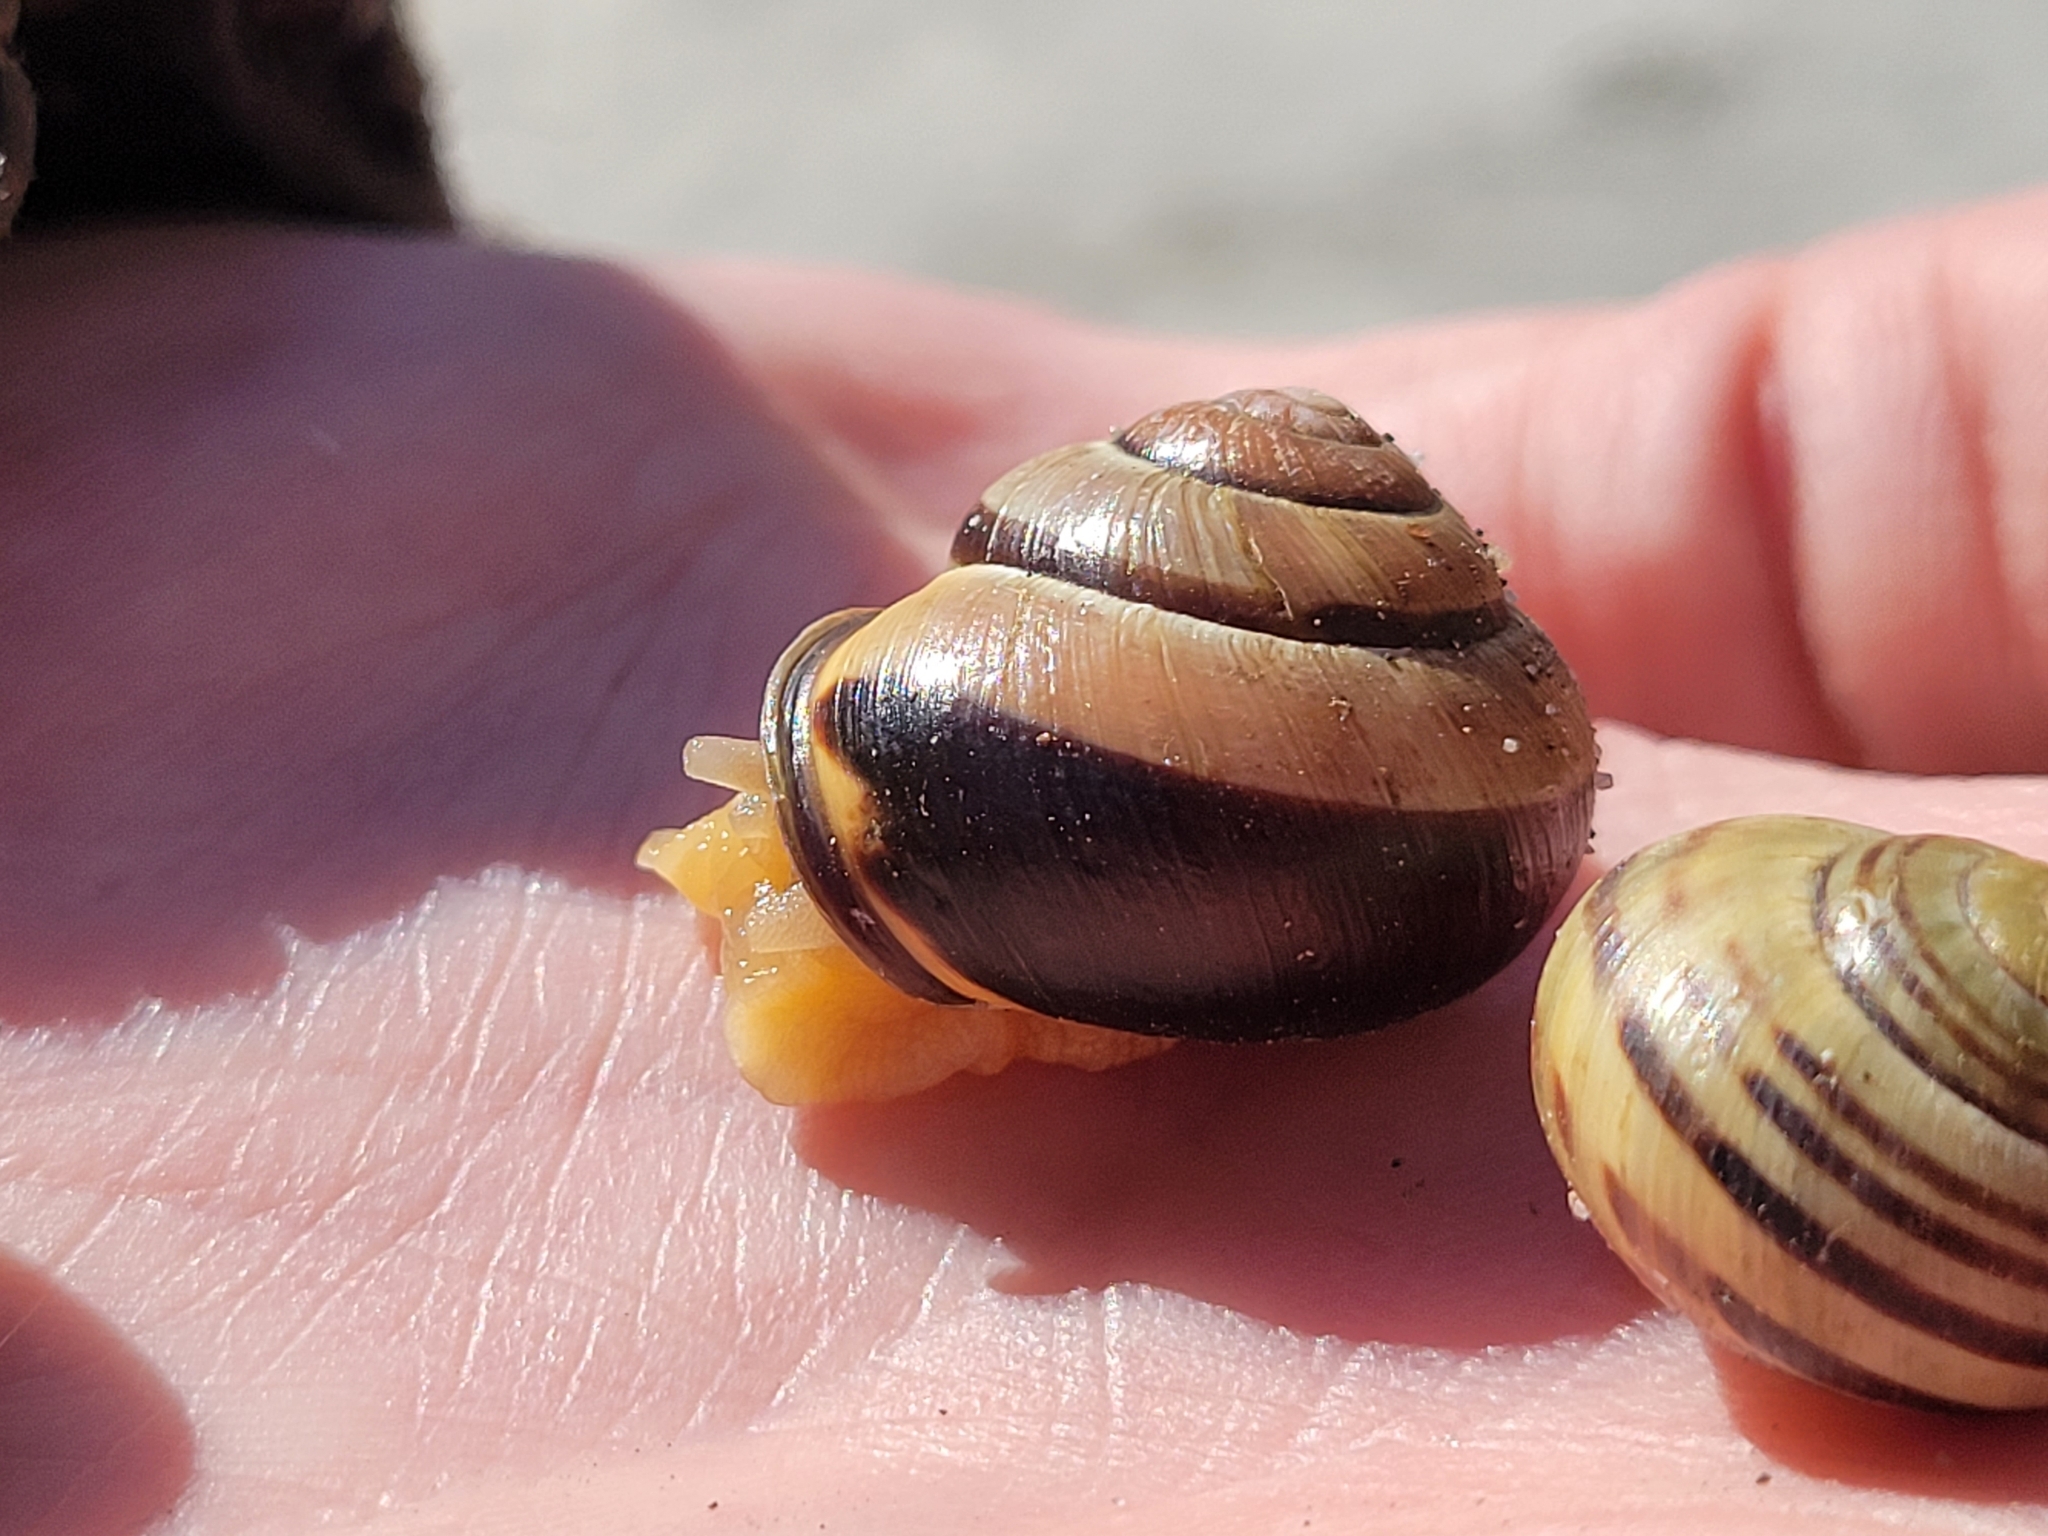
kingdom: Animalia
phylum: Mollusca
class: Gastropoda
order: Stylommatophora
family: Helicidae
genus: Cepaea
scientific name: Cepaea nemoralis
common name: Grovesnail
